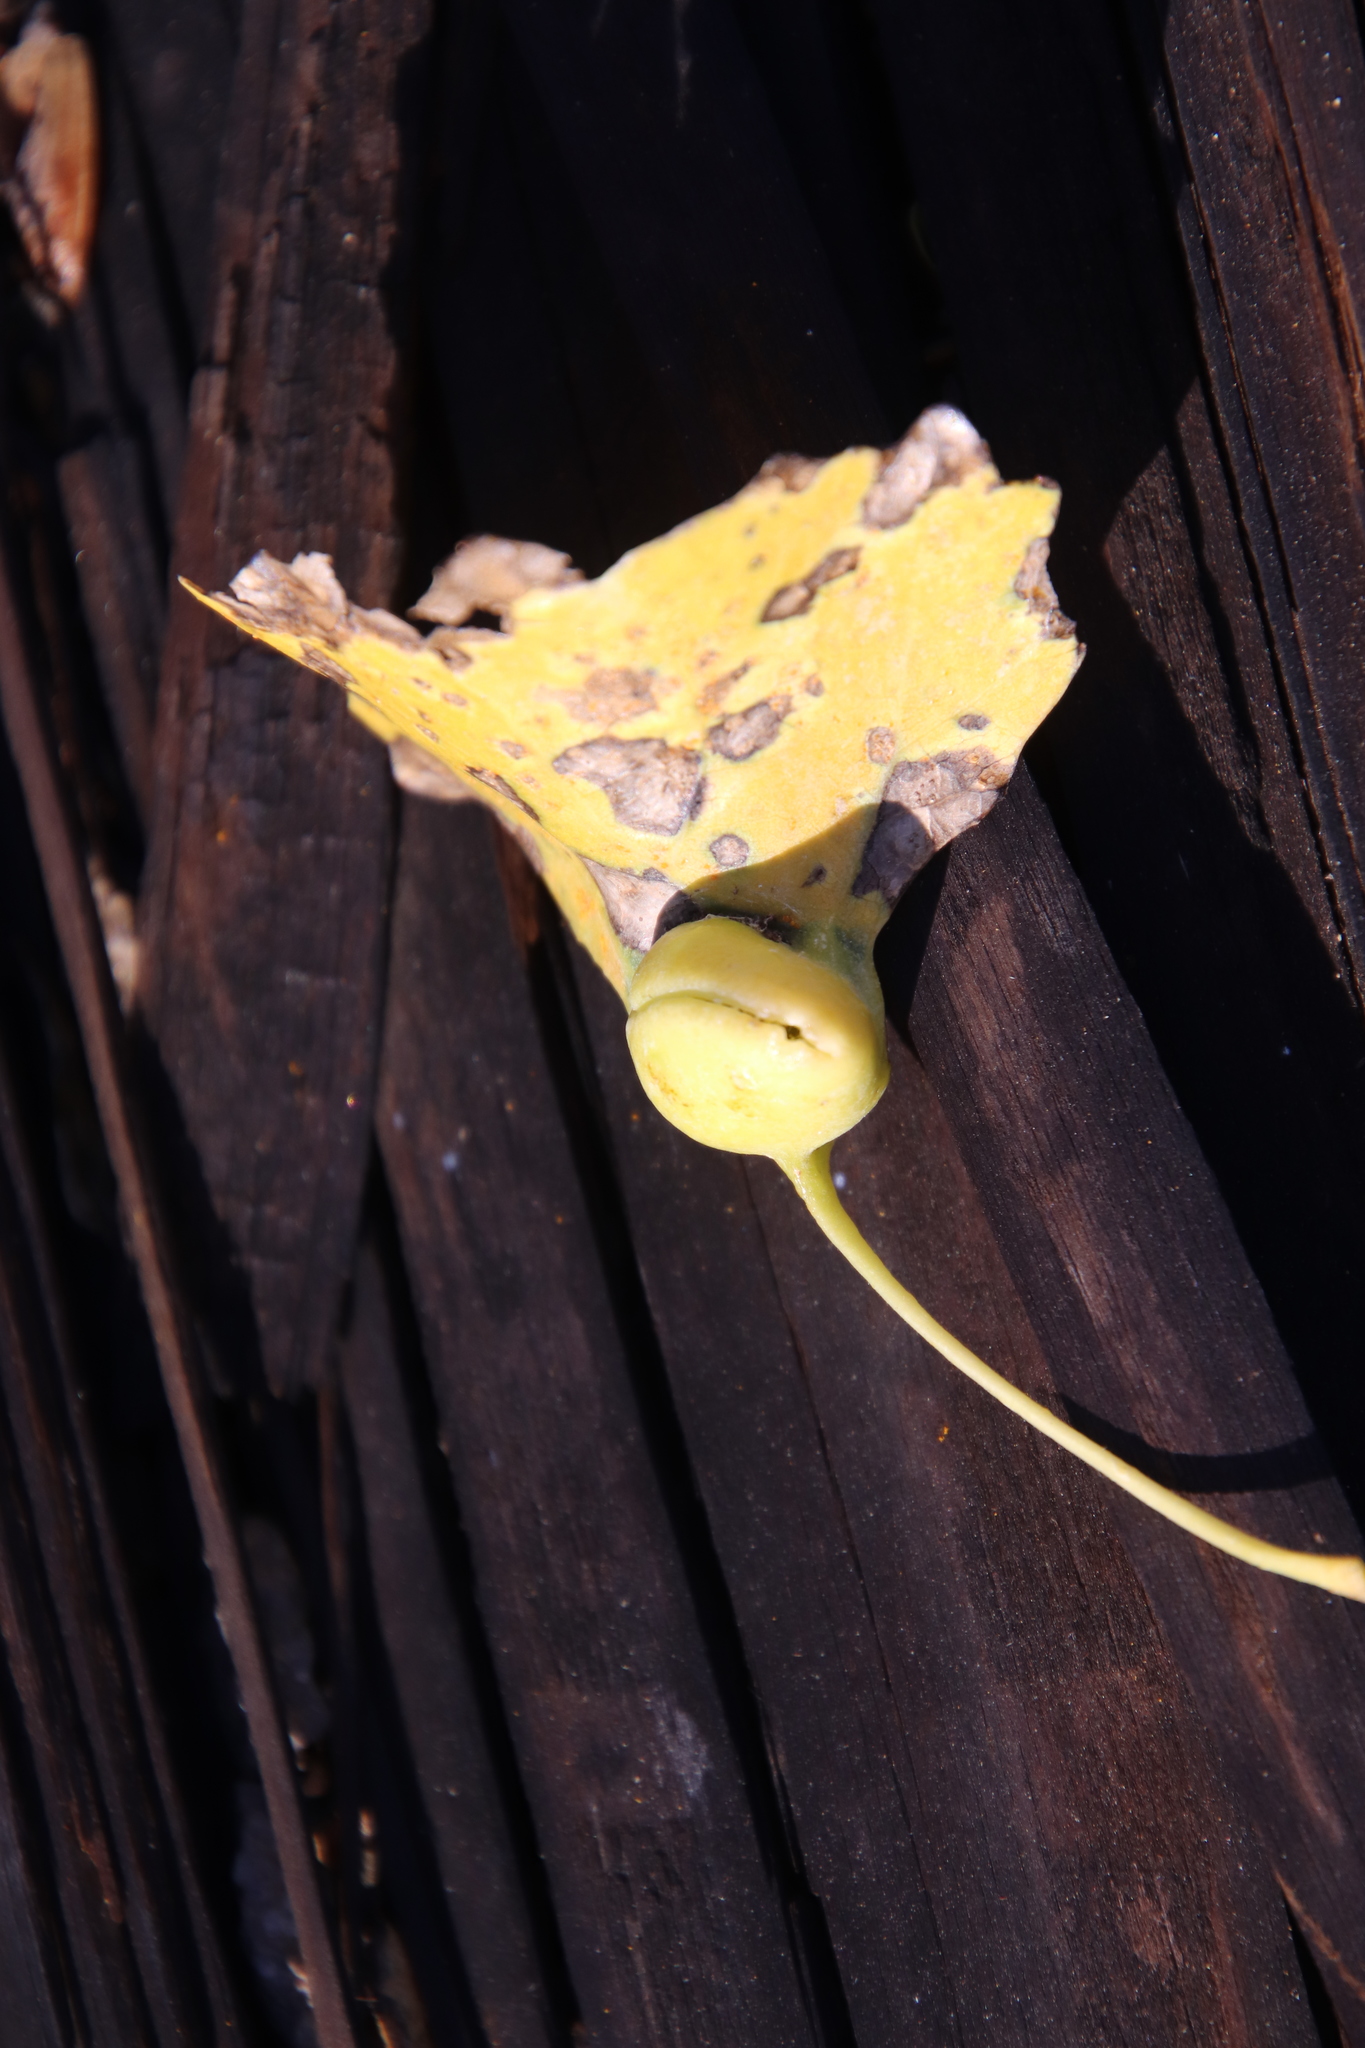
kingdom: Animalia
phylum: Arthropoda
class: Insecta
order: Hemiptera
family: Aphididae
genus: Pemphigus
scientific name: Pemphigus obesinymphae
